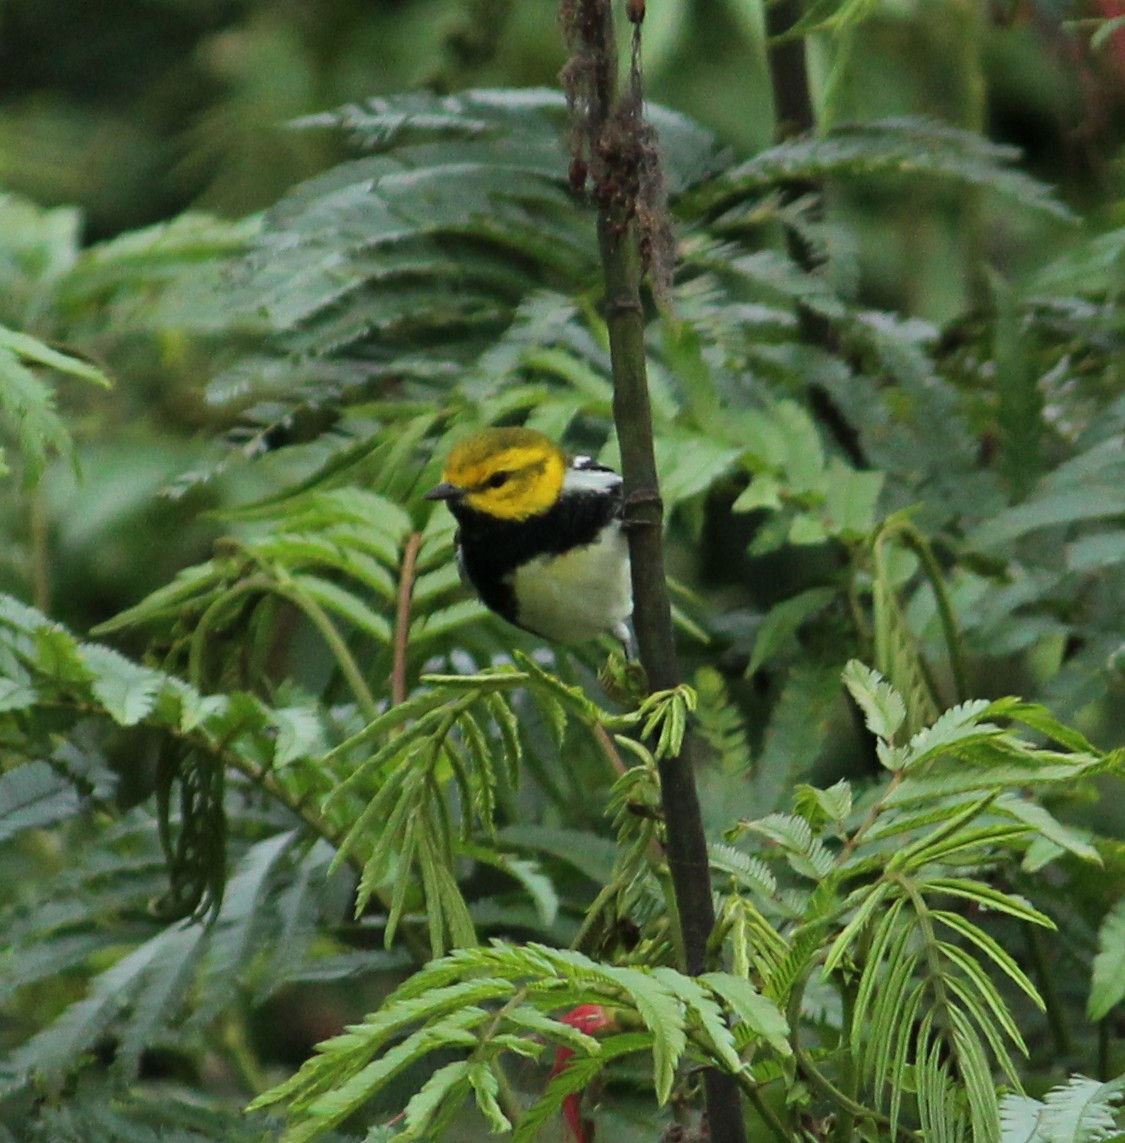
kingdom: Animalia
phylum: Chordata
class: Aves
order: Passeriformes
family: Parulidae
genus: Setophaga
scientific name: Setophaga virens
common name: Black-throated green warbler
